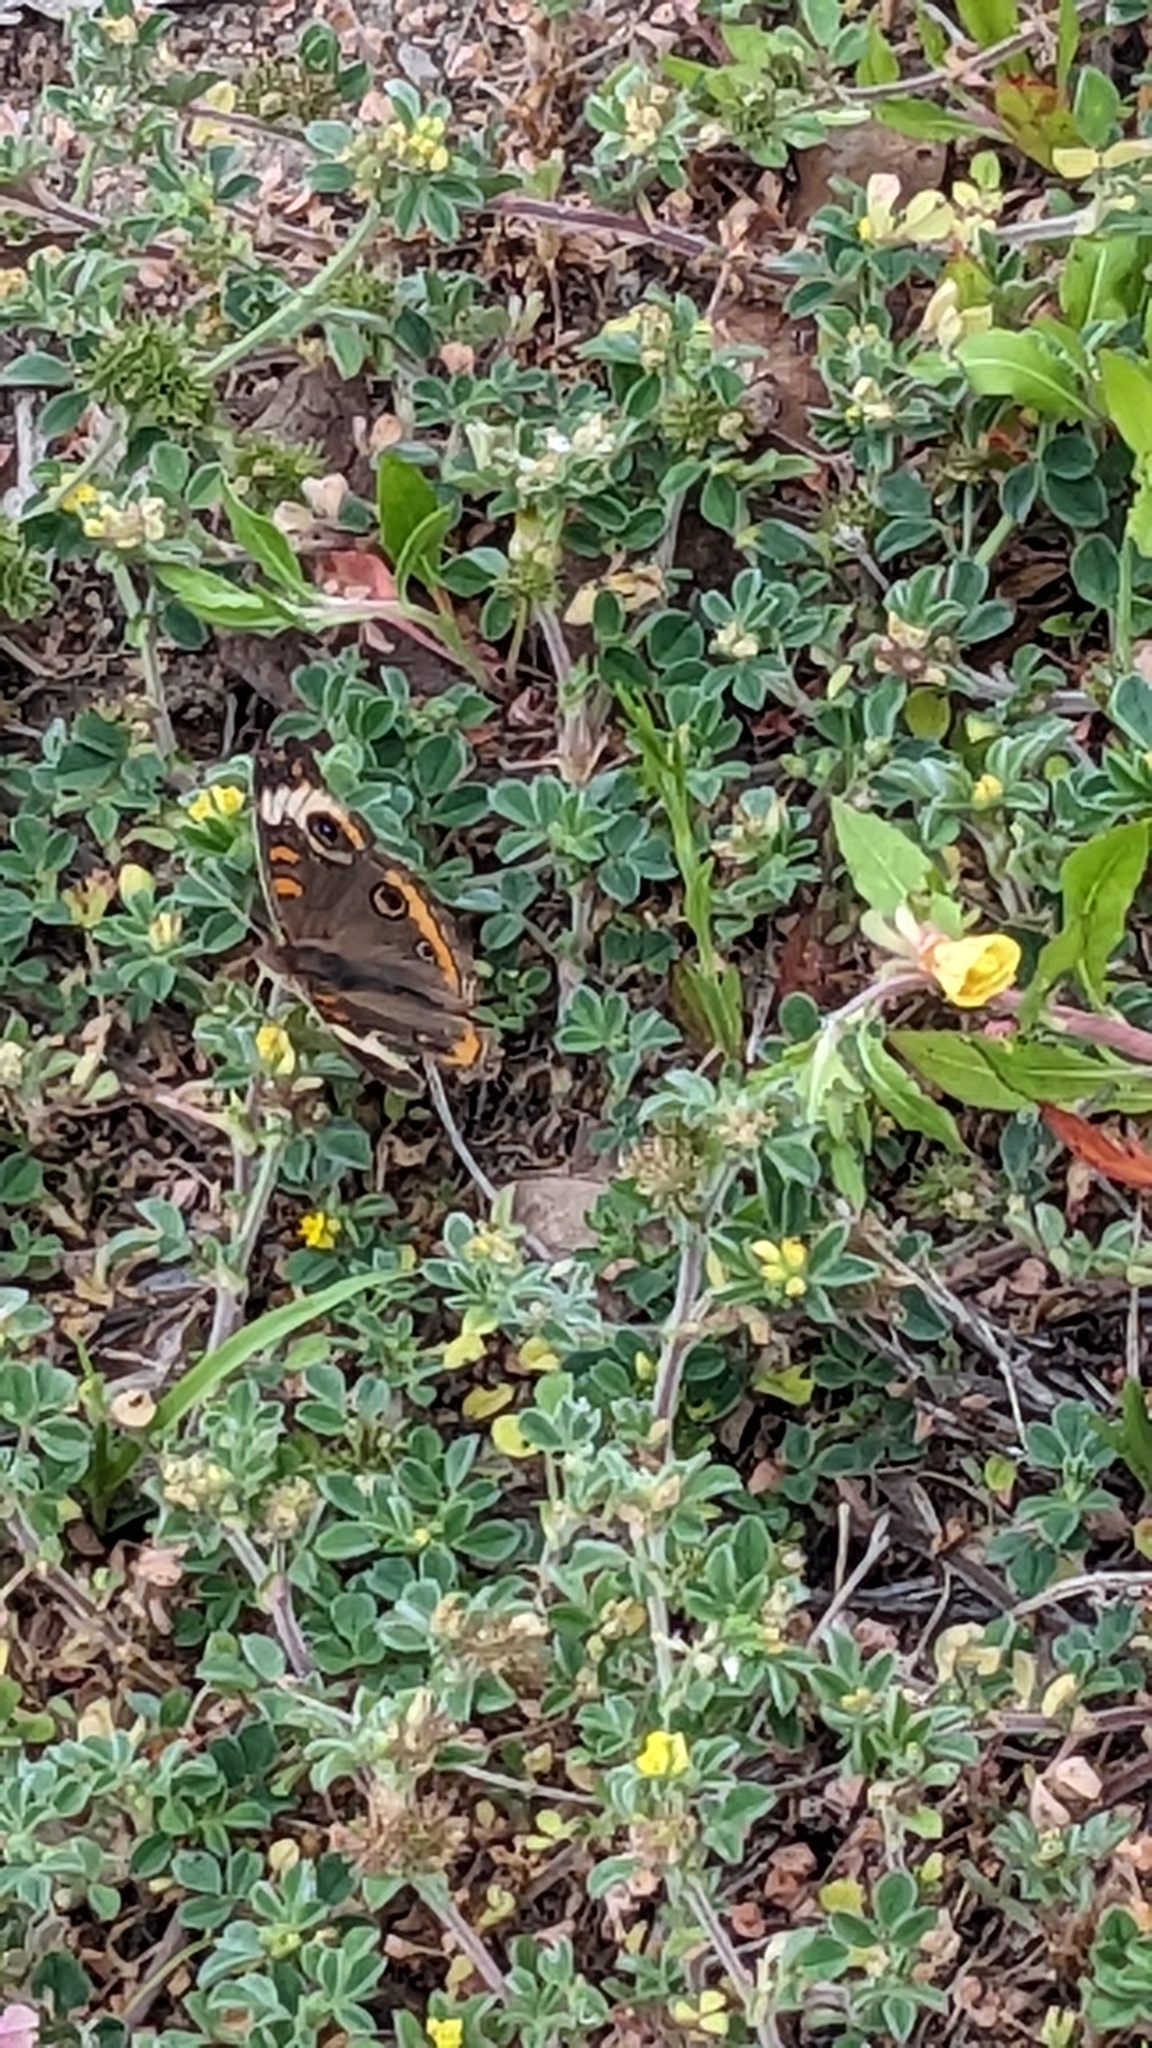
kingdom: Animalia
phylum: Arthropoda
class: Insecta
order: Lepidoptera
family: Nymphalidae
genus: Junonia
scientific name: Junonia coenia
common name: Common buckeye
